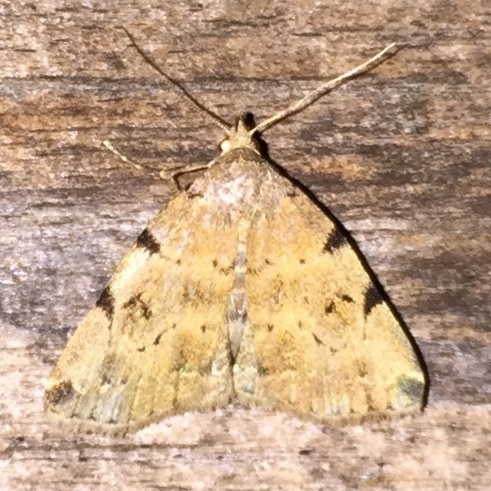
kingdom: Animalia
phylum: Arthropoda
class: Insecta
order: Lepidoptera
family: Erebidae
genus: Zanclognatha
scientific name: Zanclognatha lituralis
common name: Lettered fan-foot
